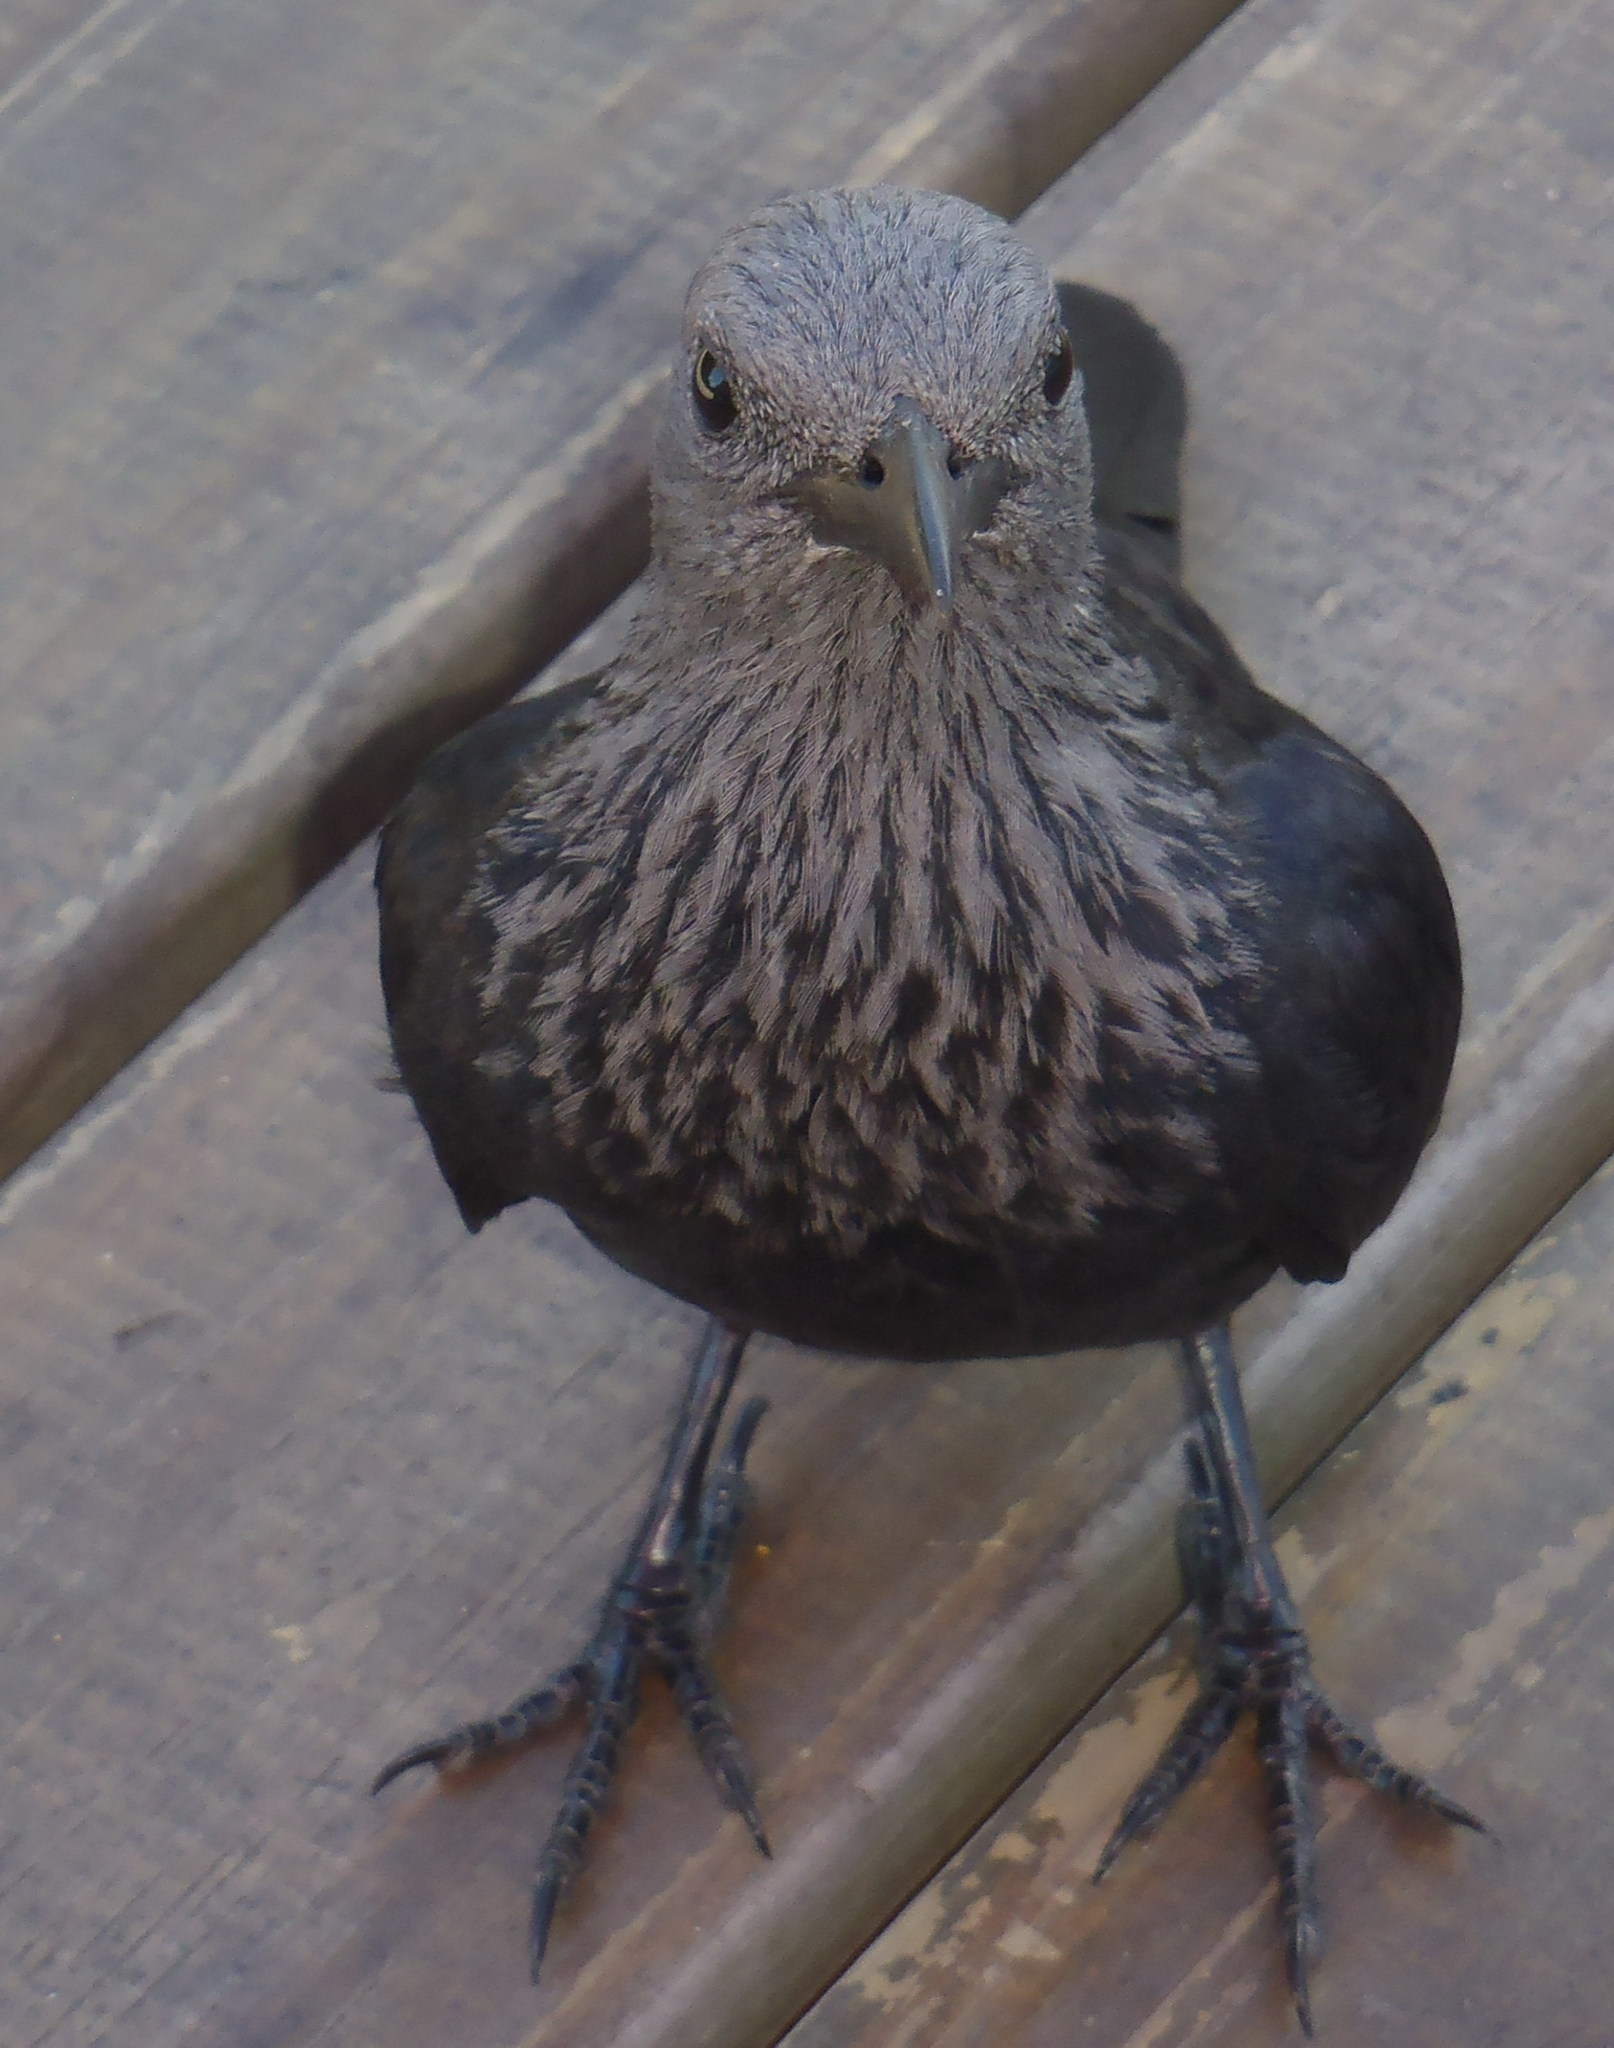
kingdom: Animalia
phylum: Chordata
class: Aves
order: Passeriformes
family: Sturnidae
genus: Onychognathus
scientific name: Onychognathus morio
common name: Red-winged starling
